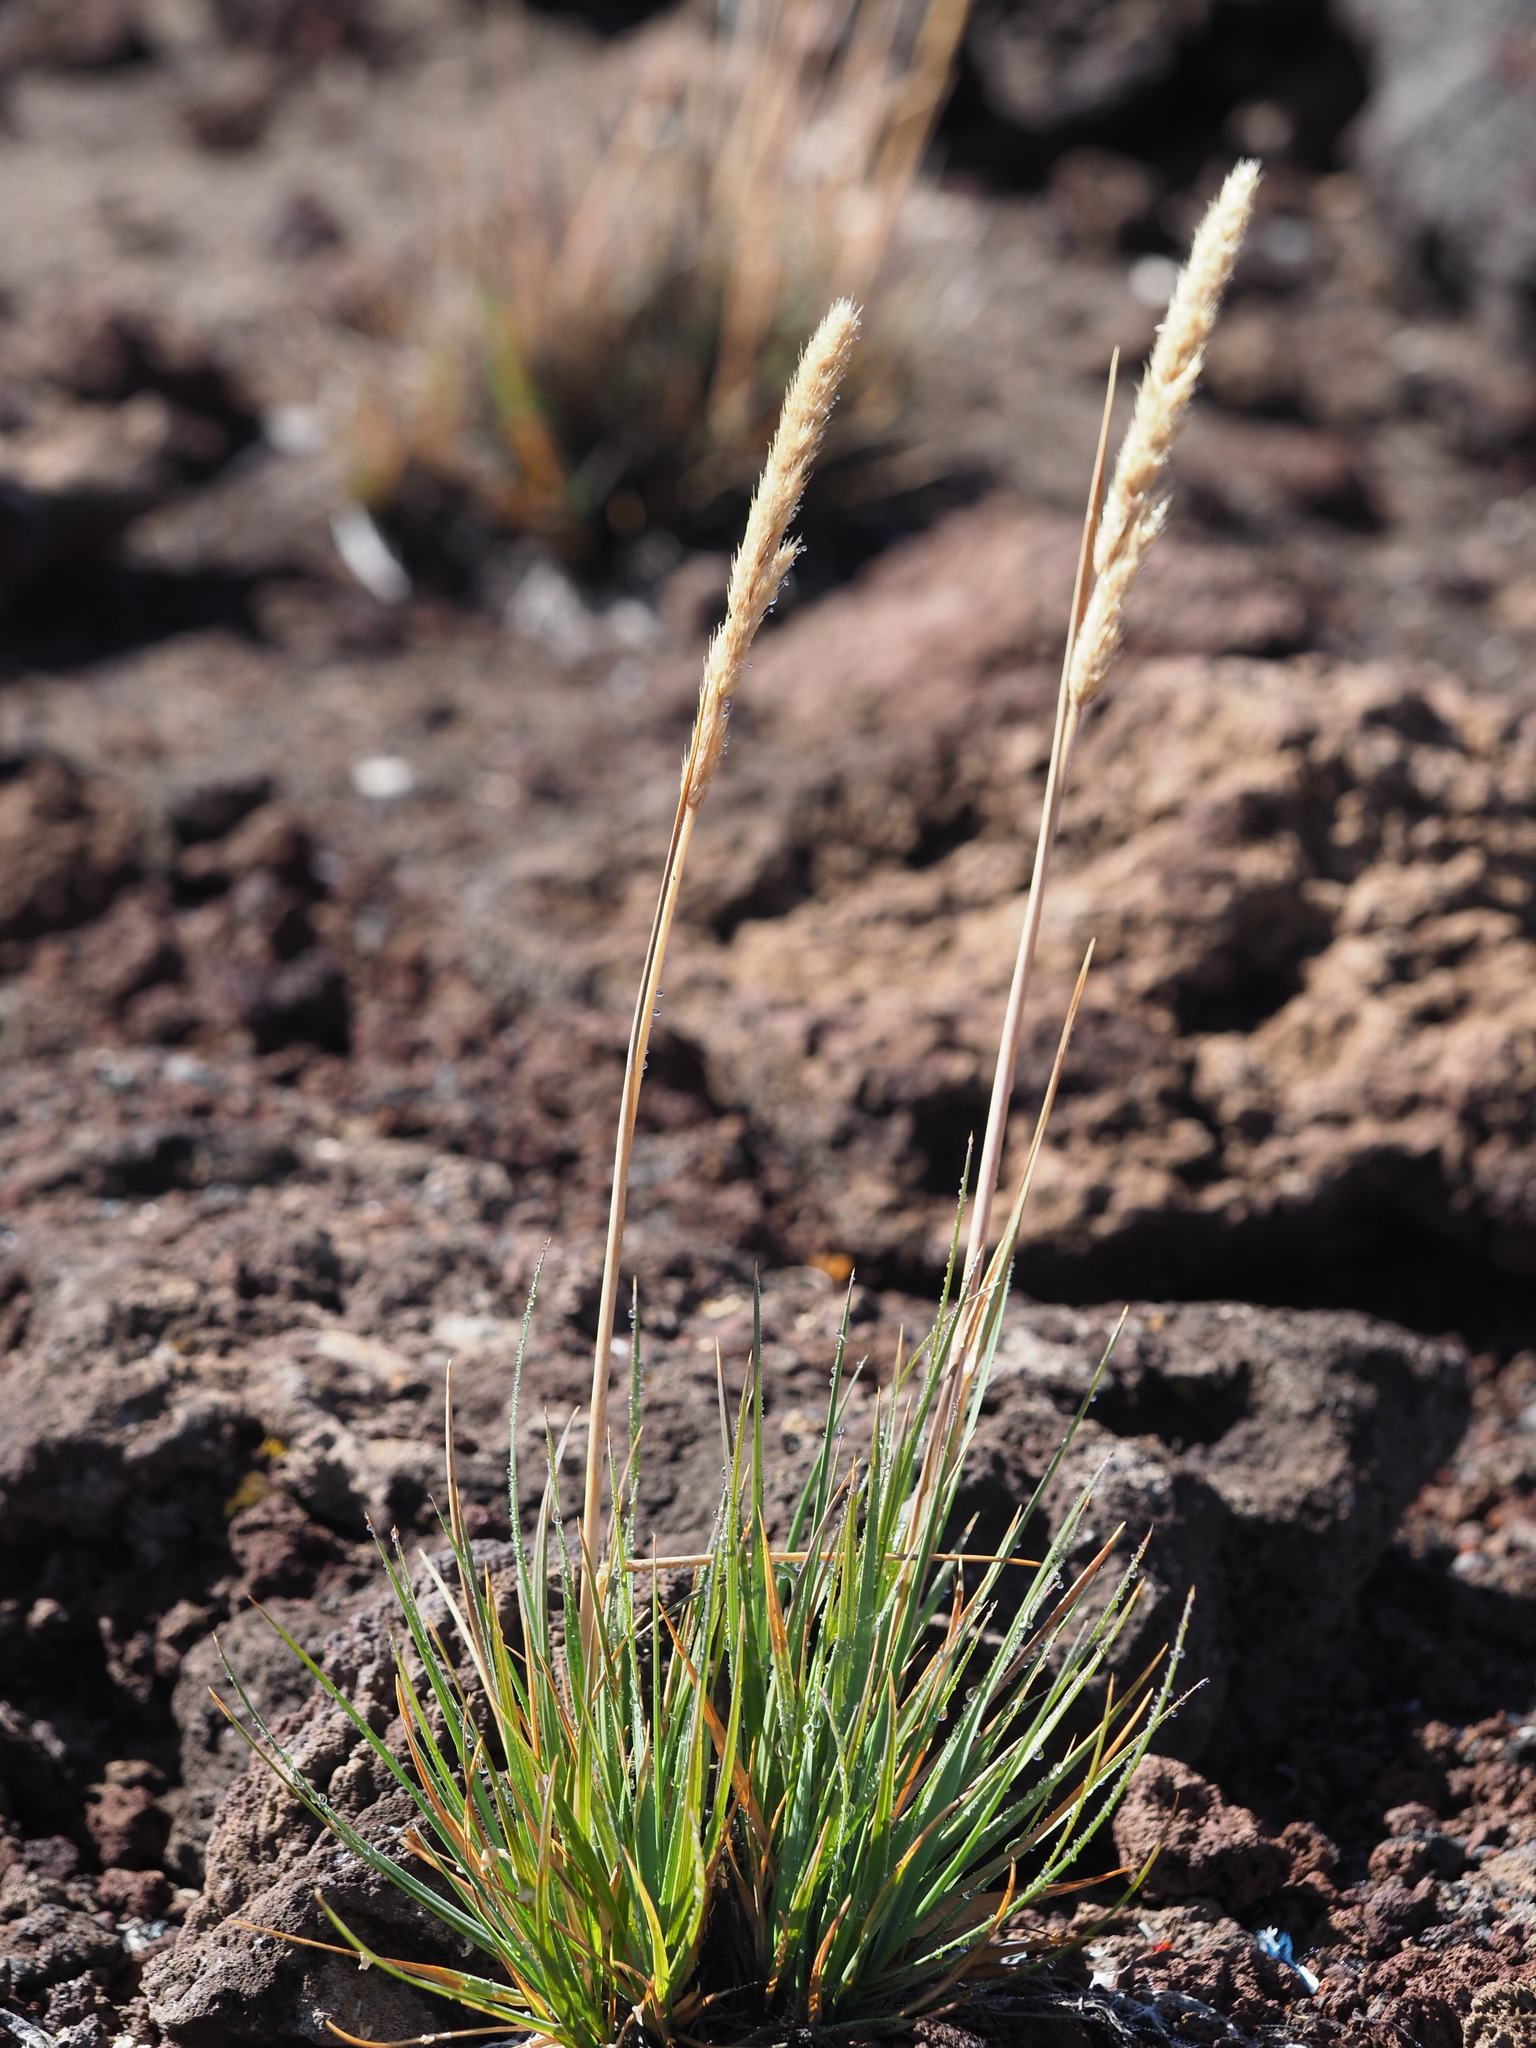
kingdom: Plantae
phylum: Tracheophyta
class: Liliopsida
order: Poales
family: Poaceae
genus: Trisetum
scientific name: Trisetum glomeratum
